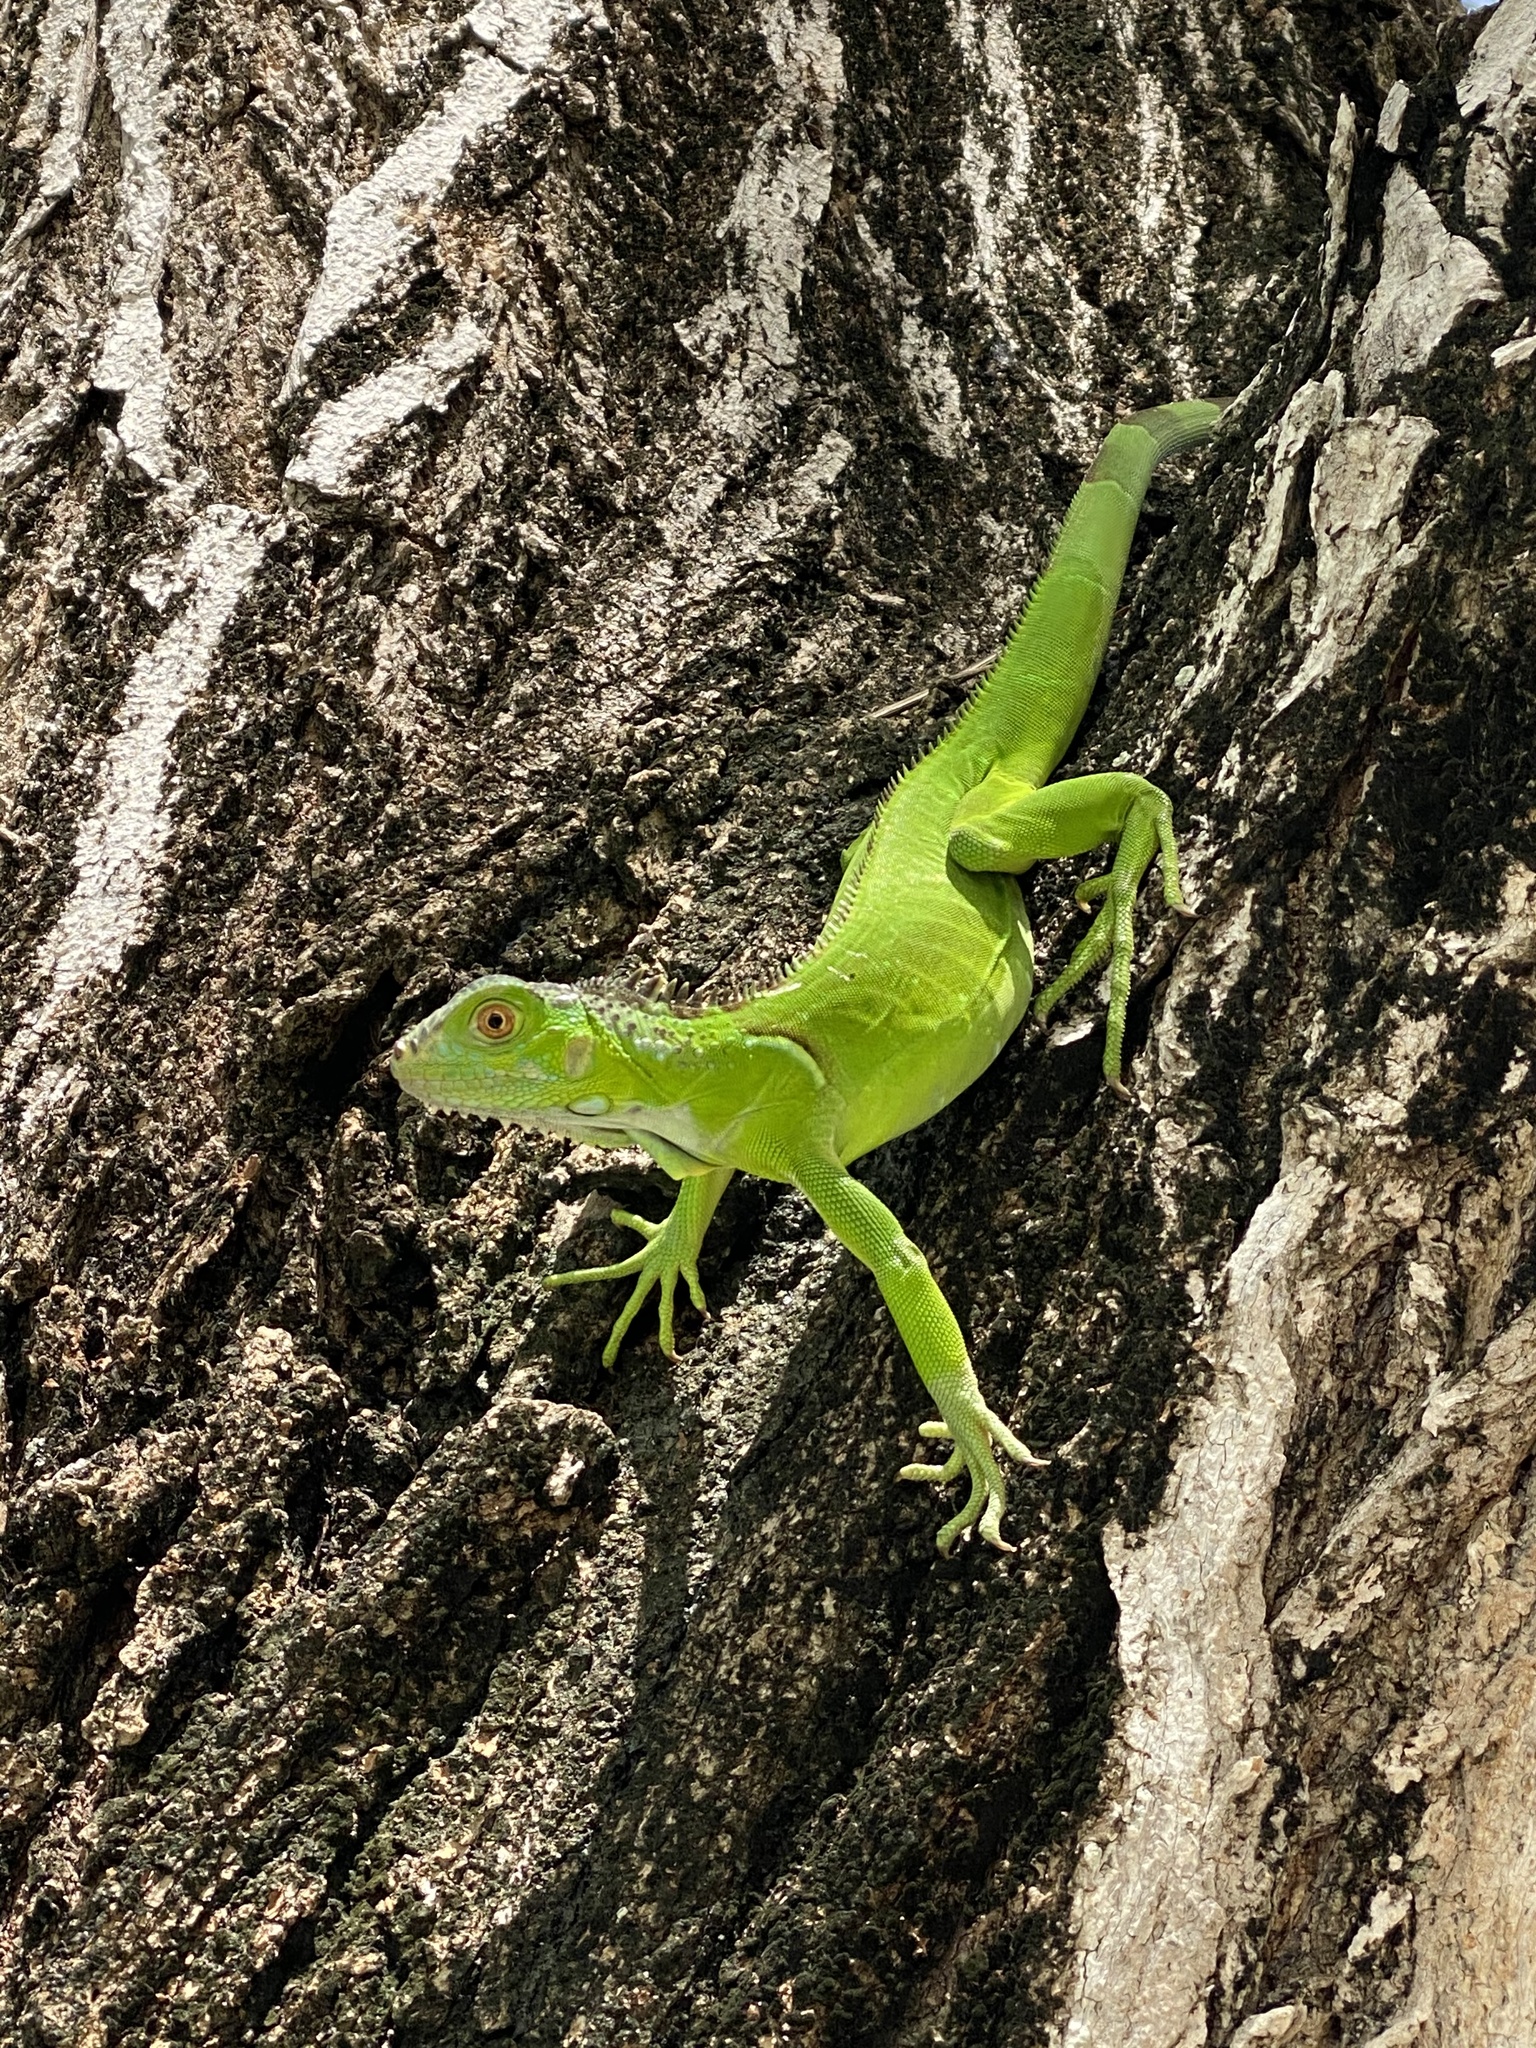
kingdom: Animalia
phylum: Chordata
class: Squamata
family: Iguanidae
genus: Iguana
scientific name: Iguana iguana
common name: Green iguana
